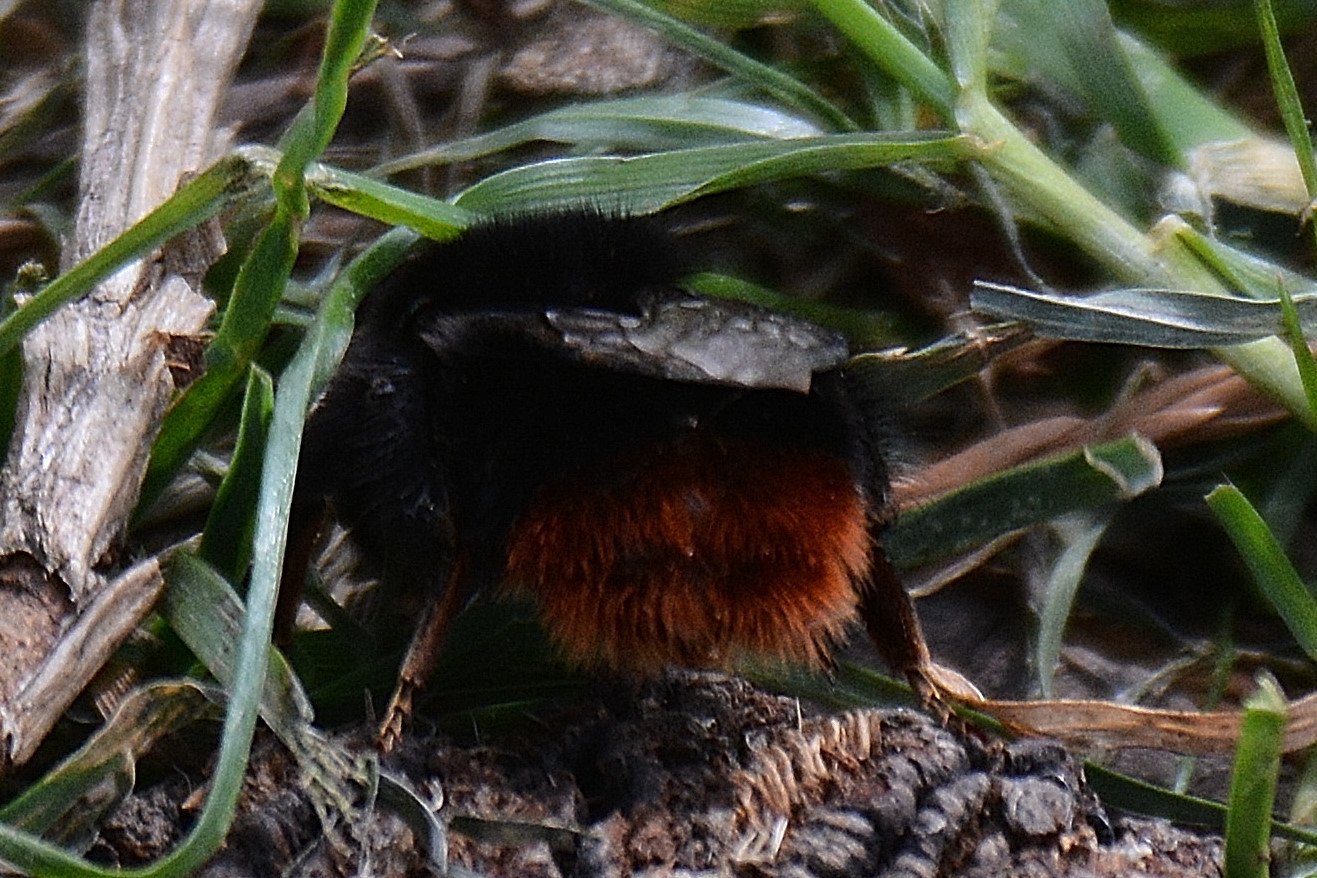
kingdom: Animalia
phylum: Arthropoda
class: Insecta
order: Hymenoptera
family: Apidae
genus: Bombus
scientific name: Bombus lapidarius
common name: Large red-tailed humble-bee
